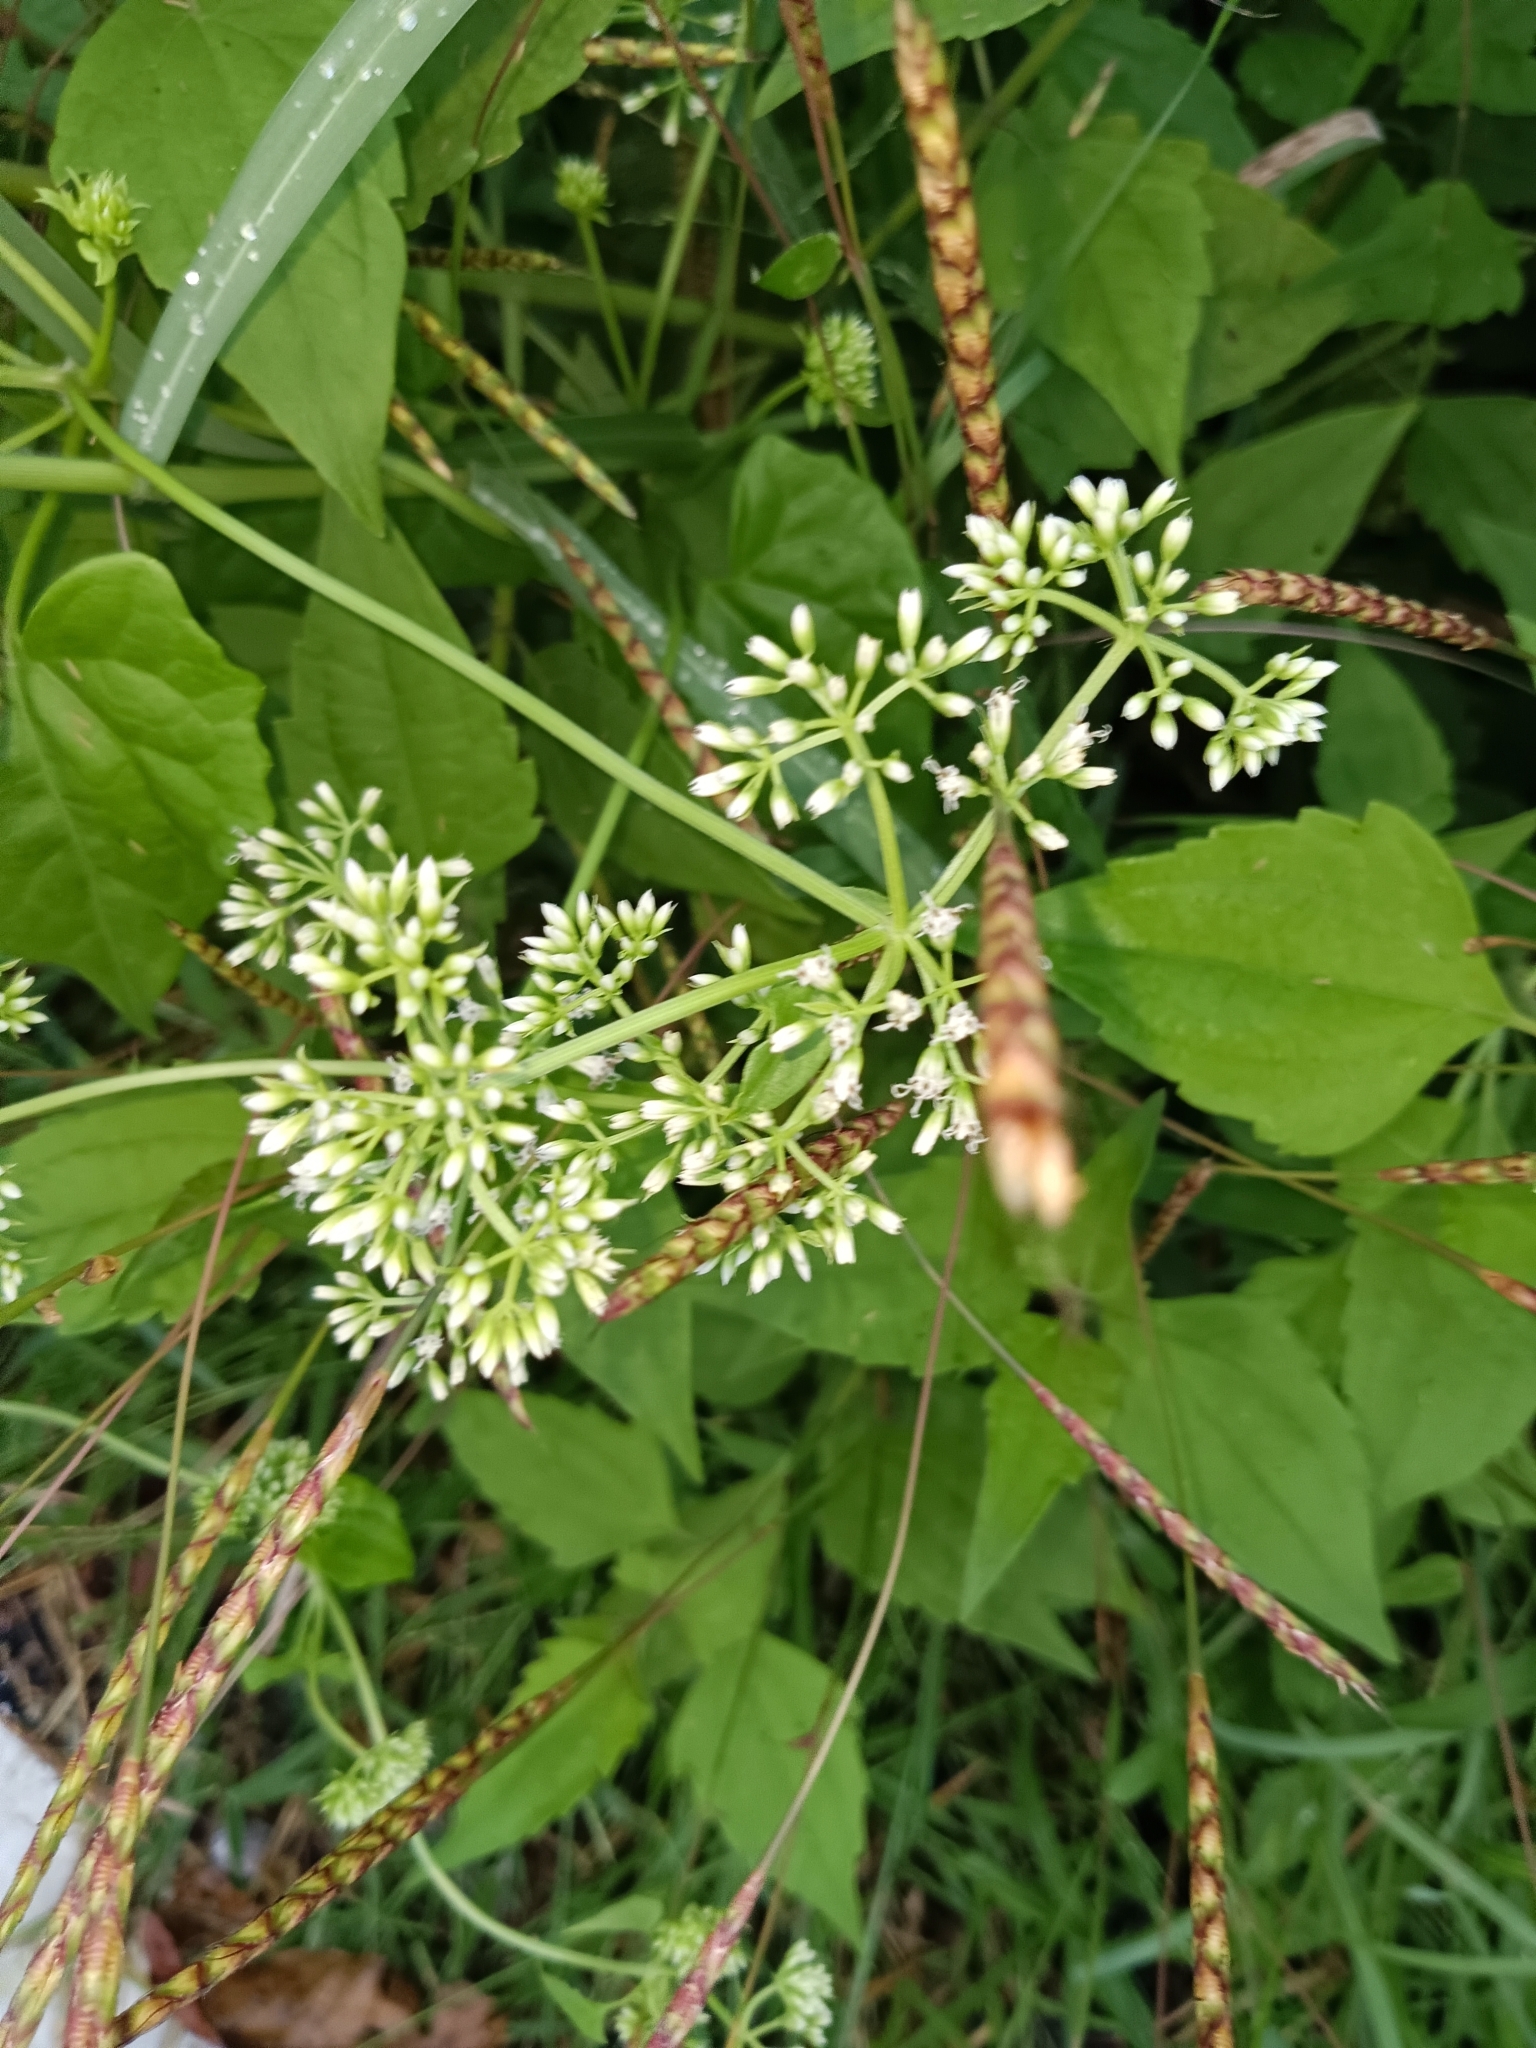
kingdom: Plantae
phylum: Tracheophyta
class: Magnoliopsida
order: Asterales
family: Asteraceae
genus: Mikania
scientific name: Mikania micrantha
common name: Mile-a-minute
